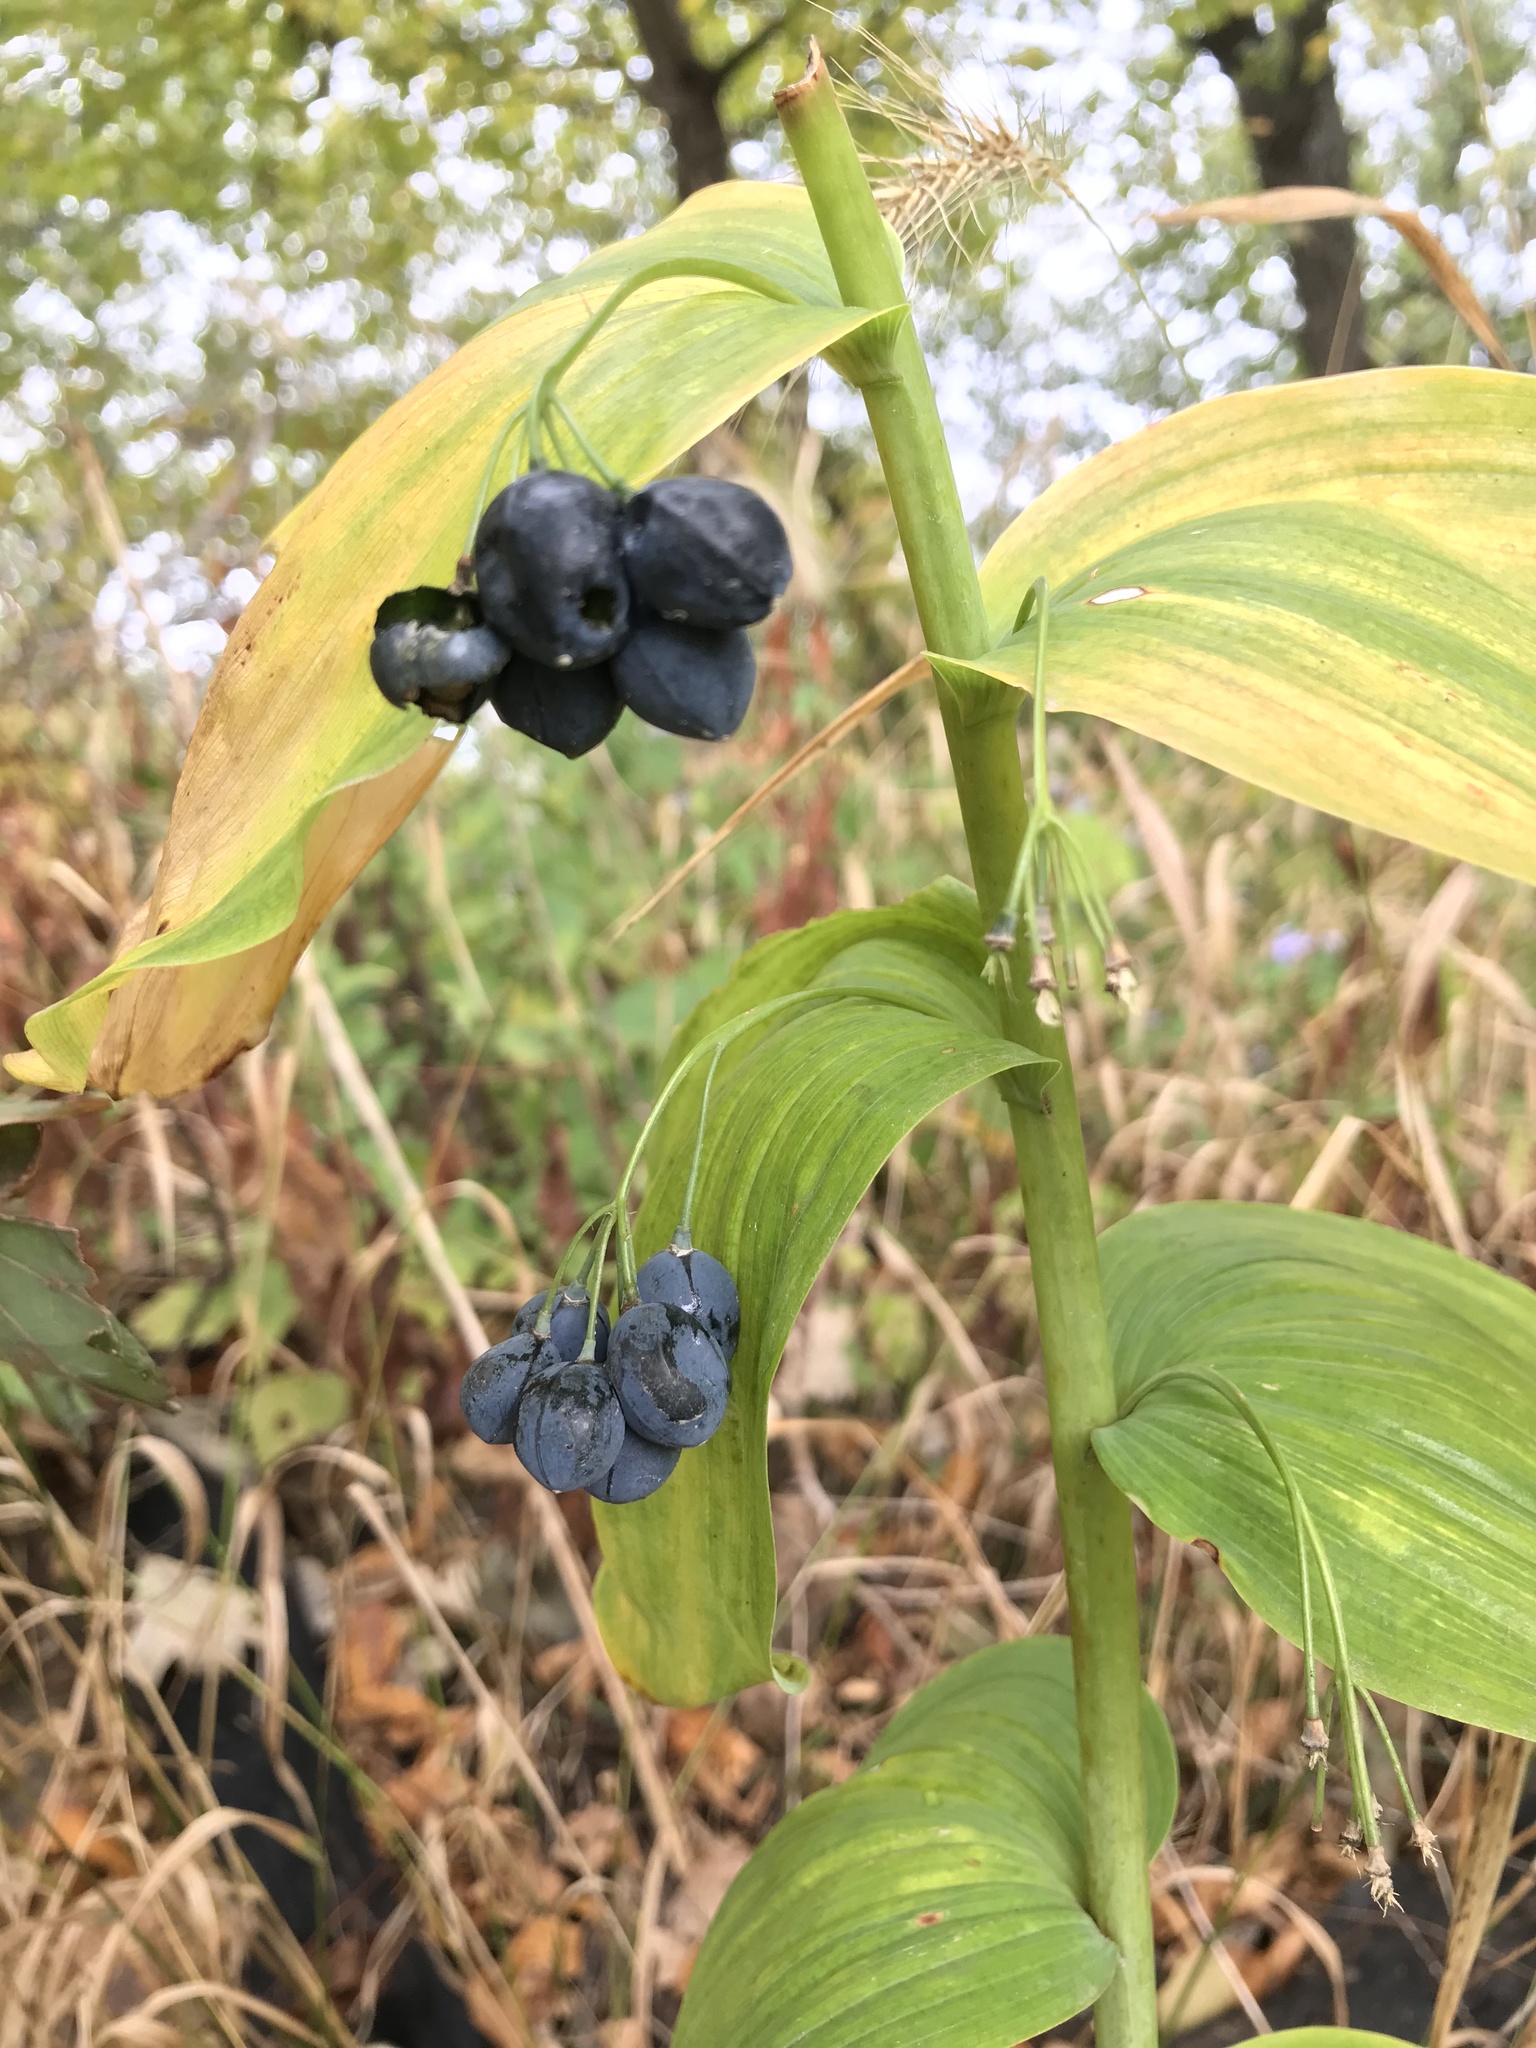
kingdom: Plantae
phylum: Tracheophyta
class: Liliopsida
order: Asparagales
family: Asparagaceae
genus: Polygonatum
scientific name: Polygonatum biflorum
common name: American solomon's-seal
